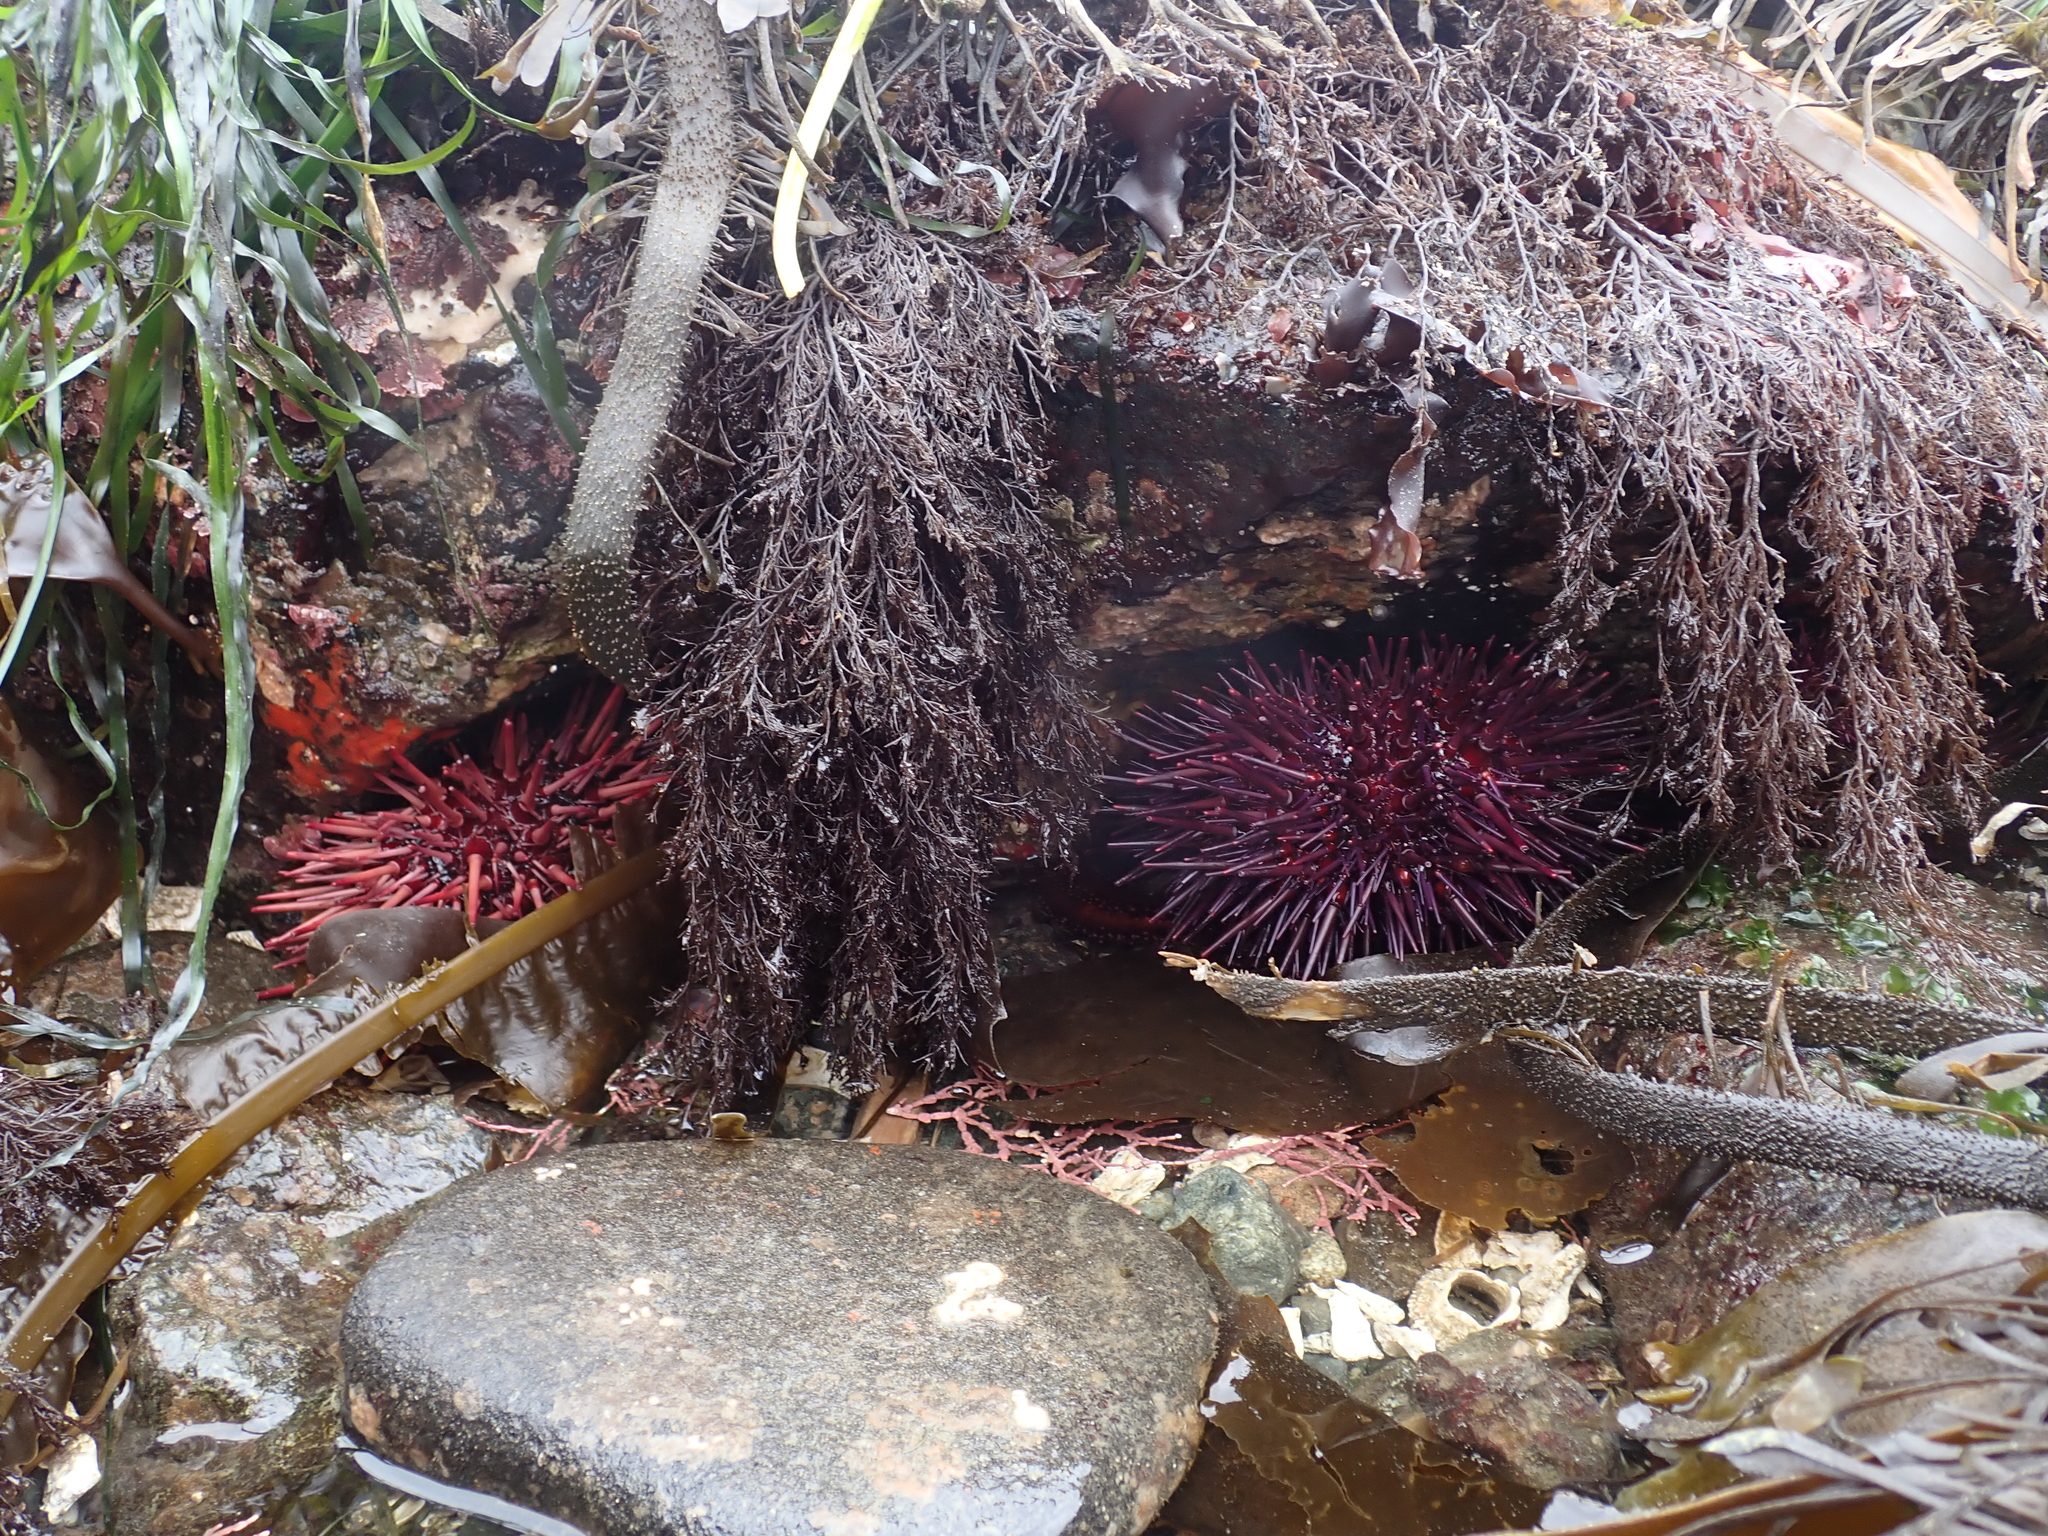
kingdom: Animalia
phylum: Echinodermata
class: Echinoidea
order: Camarodonta
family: Strongylocentrotidae
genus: Mesocentrotus
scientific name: Mesocentrotus franciscanus
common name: Red sea urchin
